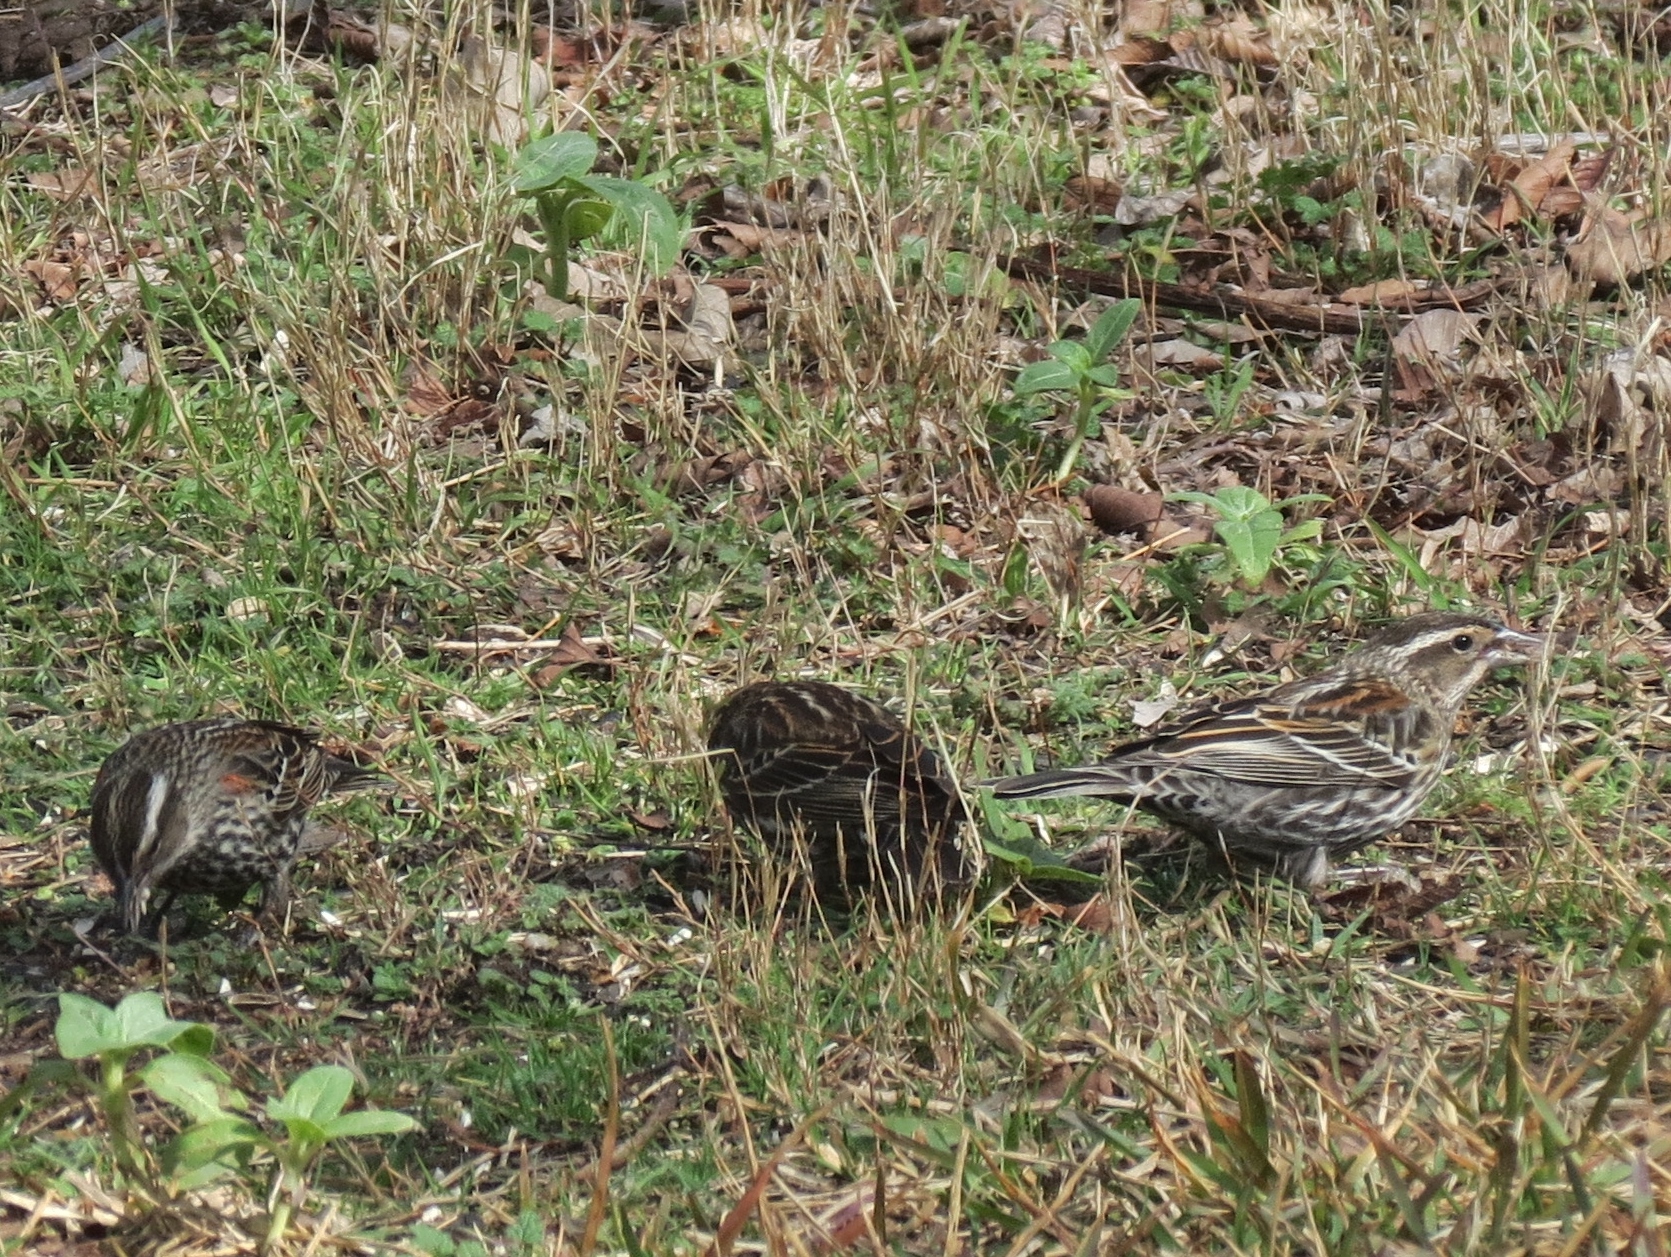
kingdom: Animalia
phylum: Chordata
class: Aves
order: Passeriformes
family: Icteridae
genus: Agelaius
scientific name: Agelaius phoeniceus
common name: Red-winged blackbird
